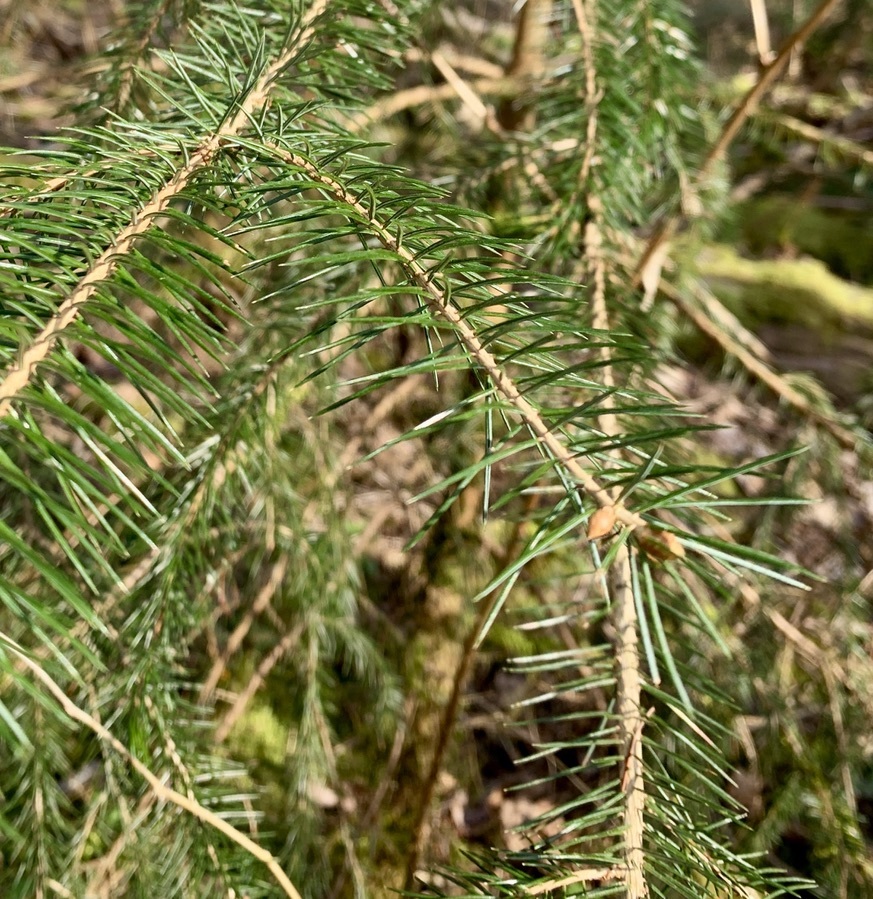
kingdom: Plantae
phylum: Tracheophyta
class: Pinopsida
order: Pinales
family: Pinaceae
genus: Pseudotsuga
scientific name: Pseudotsuga menziesii
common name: Douglas fir
